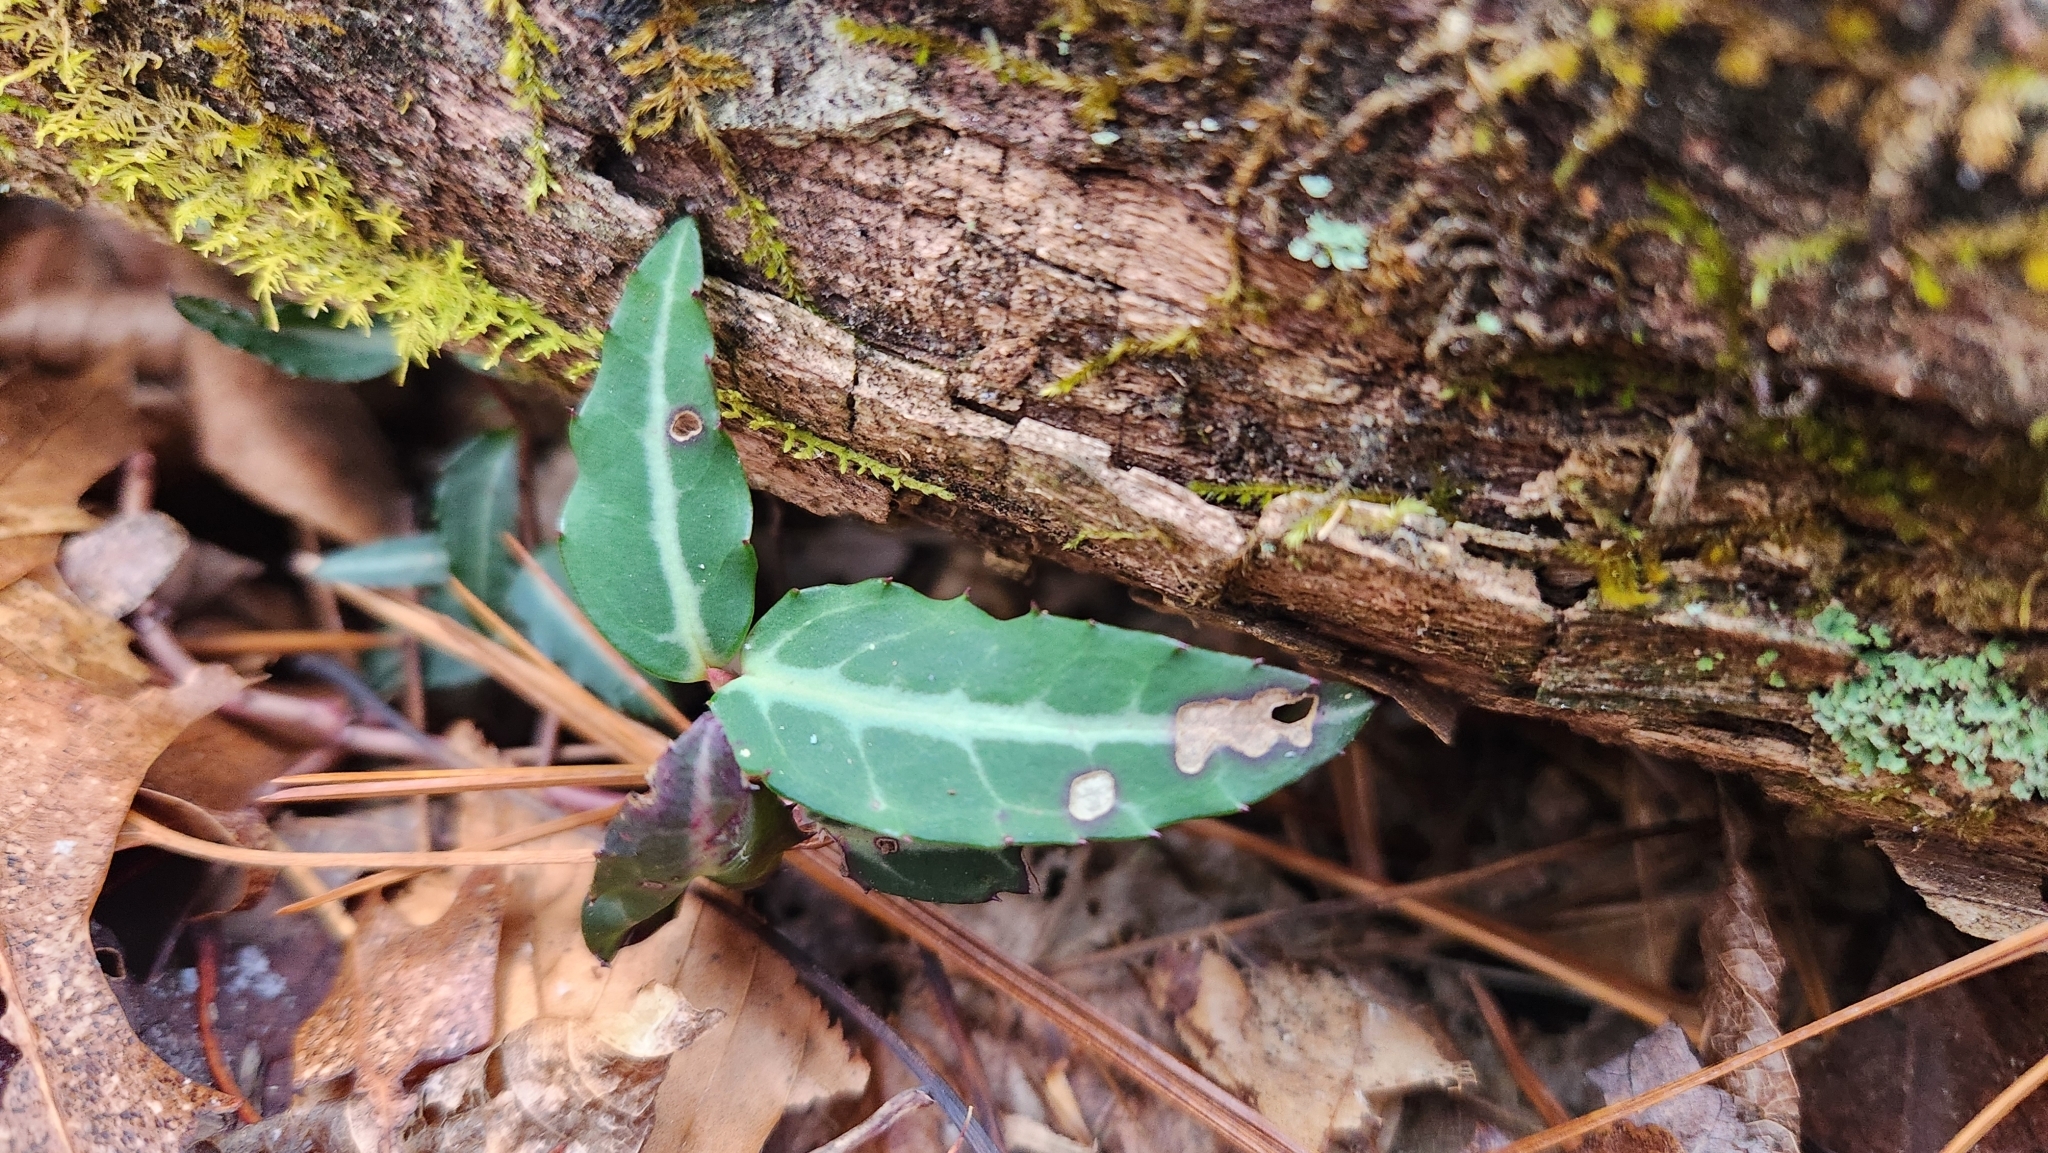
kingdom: Plantae
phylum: Tracheophyta
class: Magnoliopsida
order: Ericales
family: Ericaceae
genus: Chimaphila
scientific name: Chimaphila maculata
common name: Spotted pipsissewa
